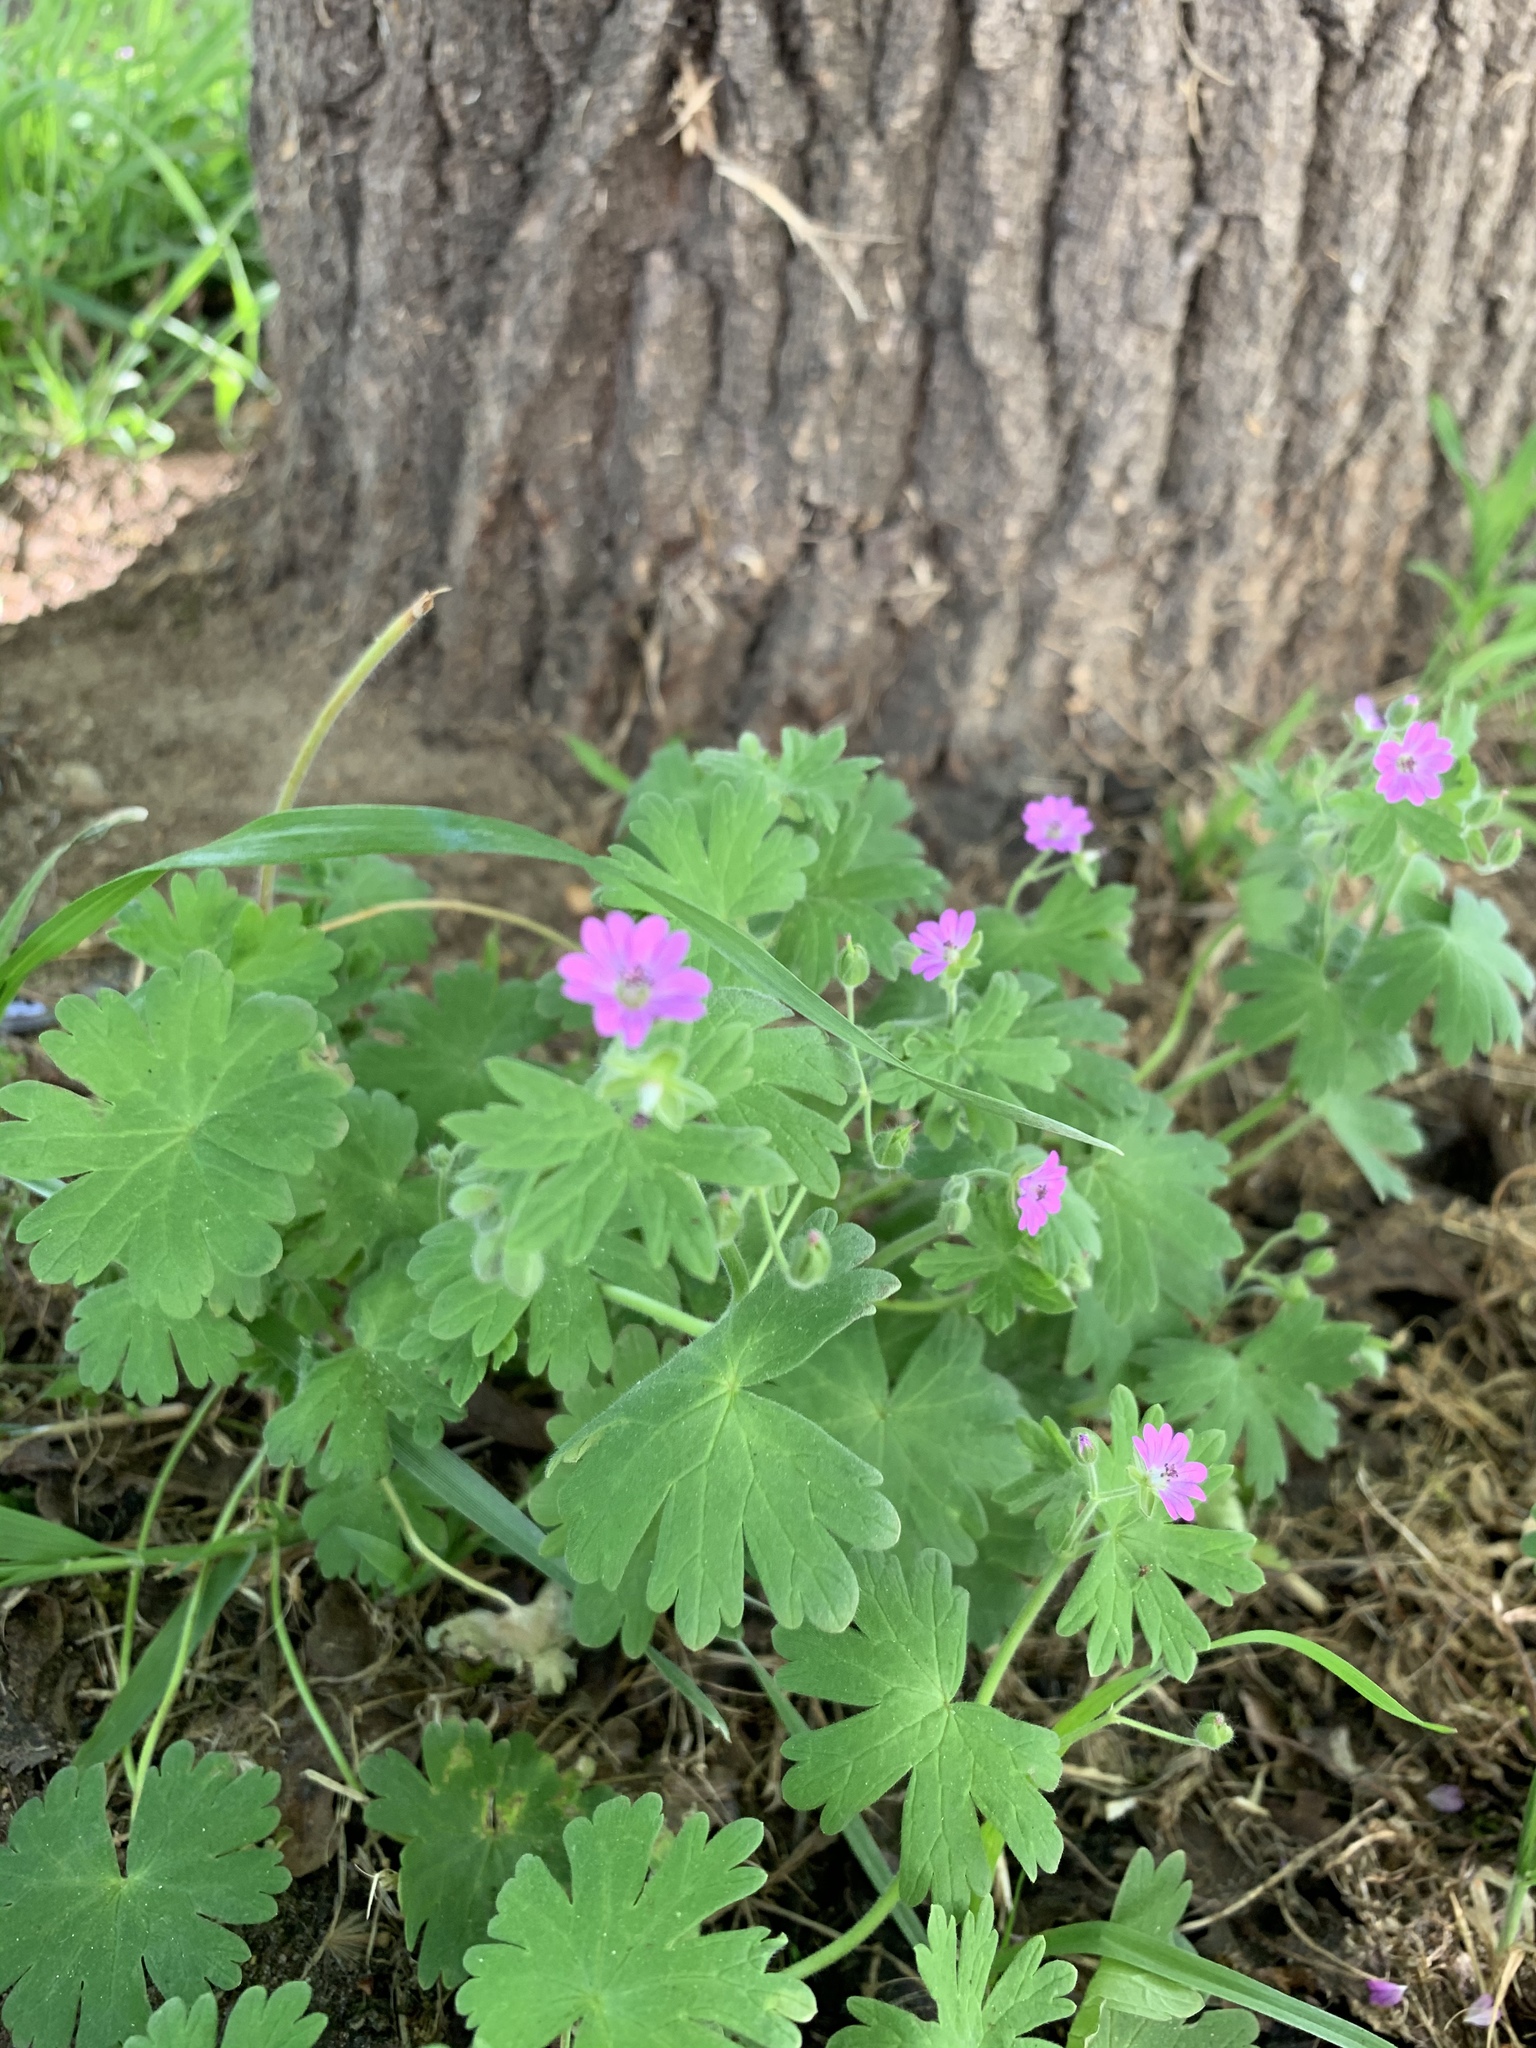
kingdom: Plantae
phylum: Tracheophyta
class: Magnoliopsida
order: Geraniales
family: Geraniaceae
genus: Geranium
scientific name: Geranium molle
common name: Dove's-foot crane's-bill
